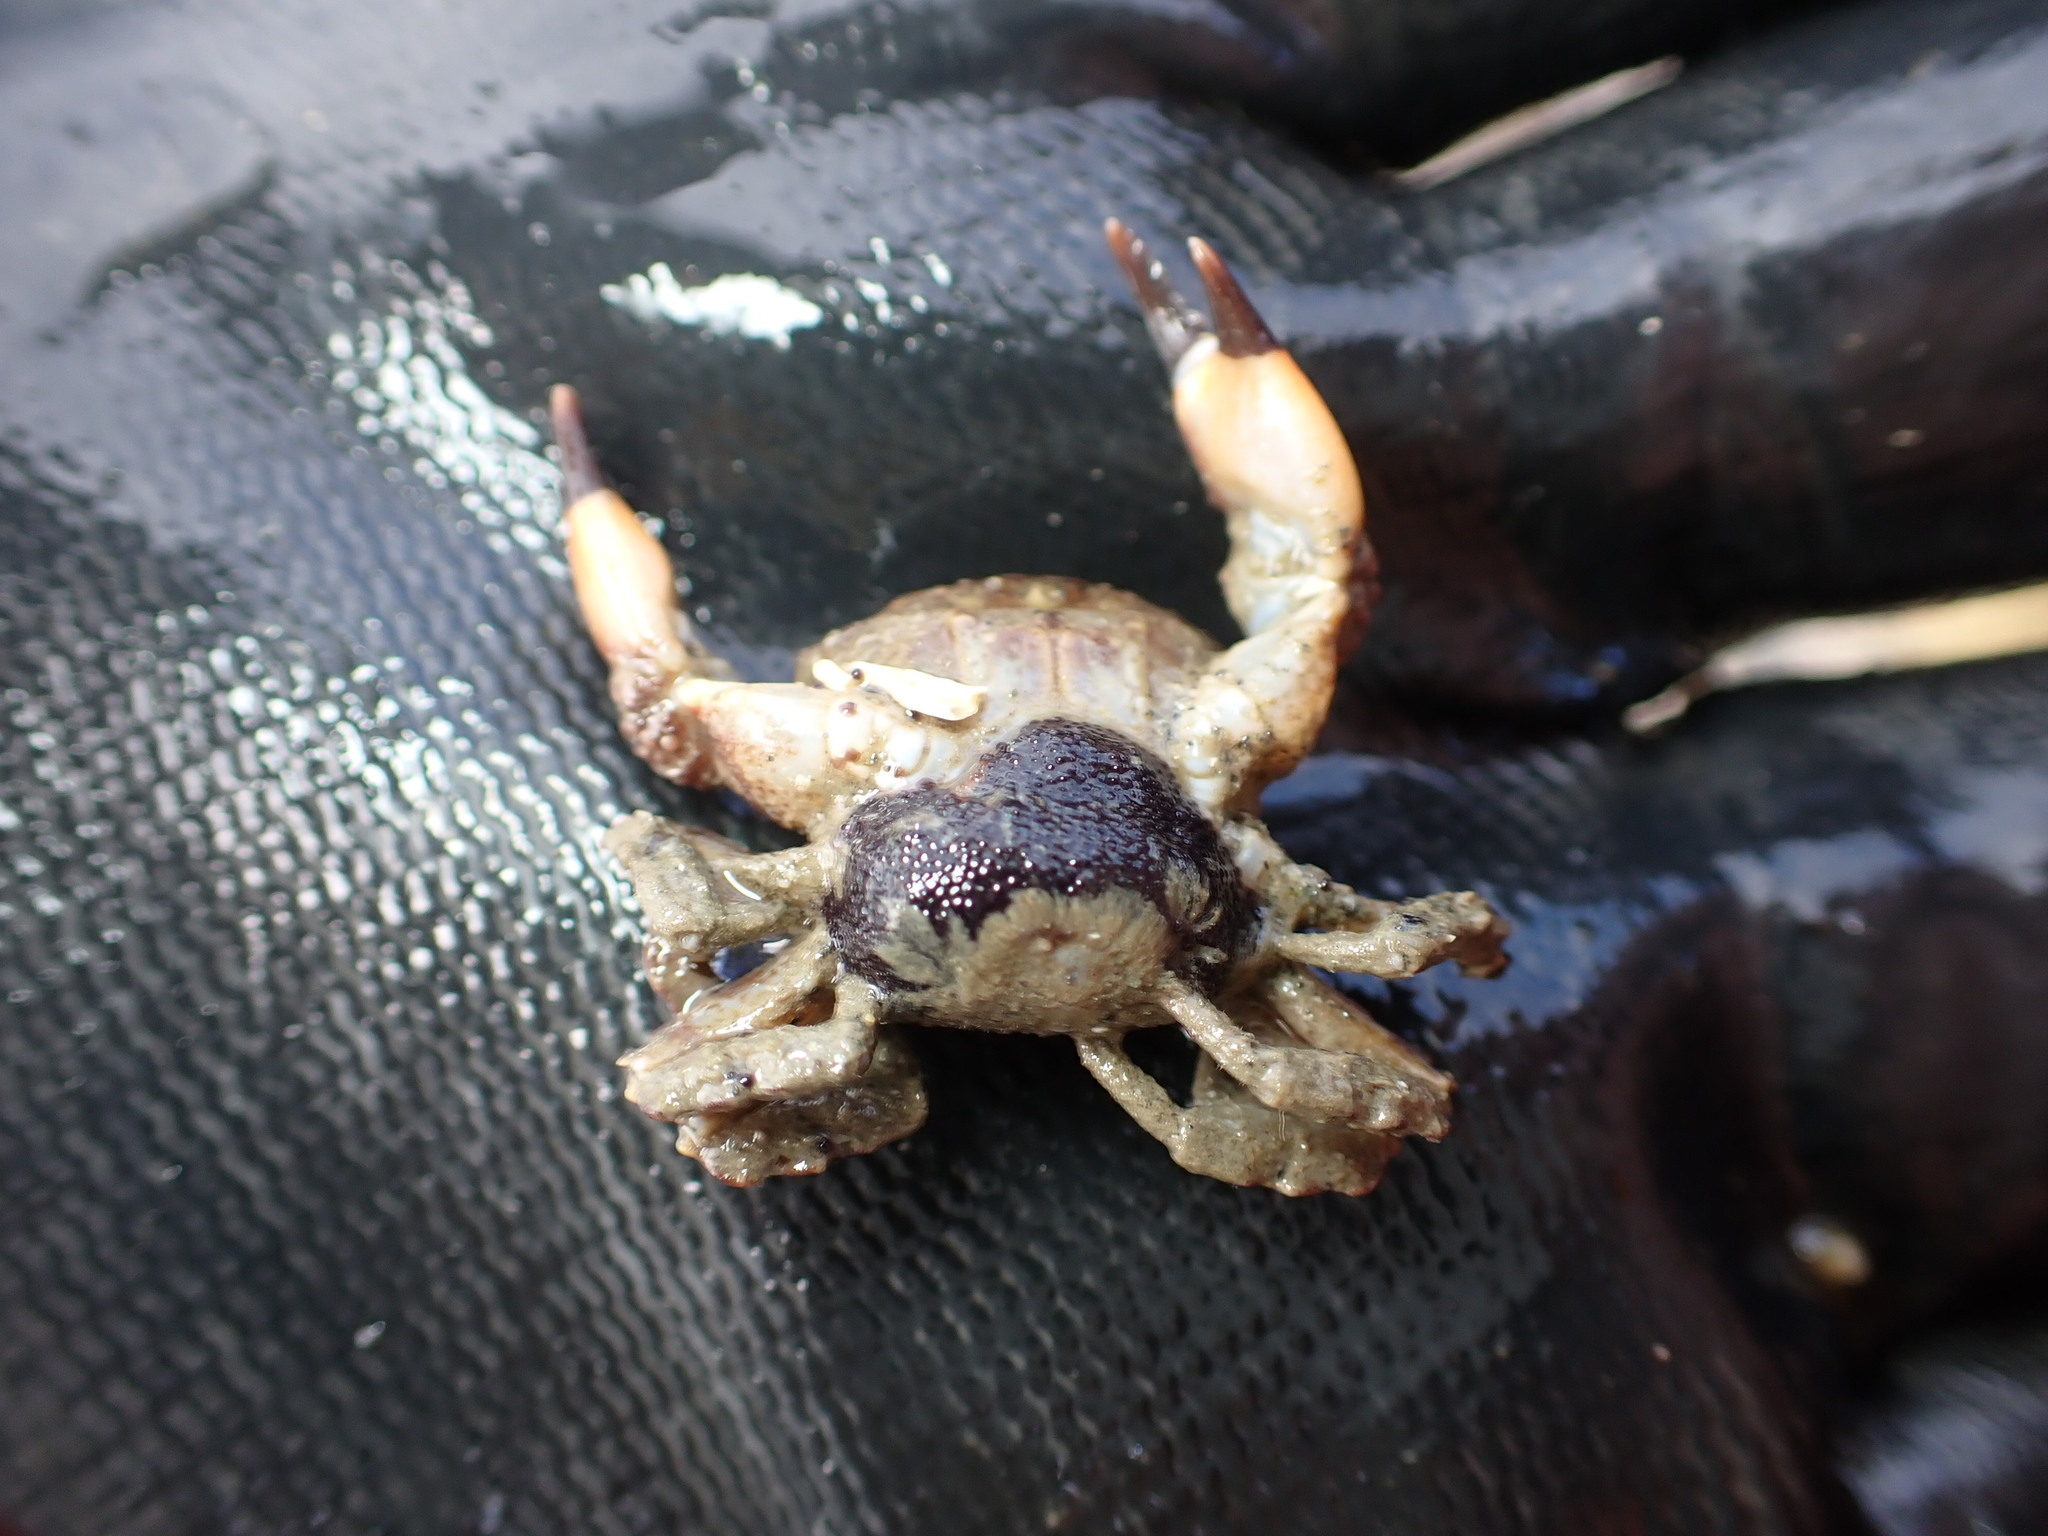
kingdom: Animalia
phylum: Arthropoda
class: Malacostraca
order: Decapoda
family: Panopeidae
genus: Lophopanopeus
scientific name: Lophopanopeus bellus
